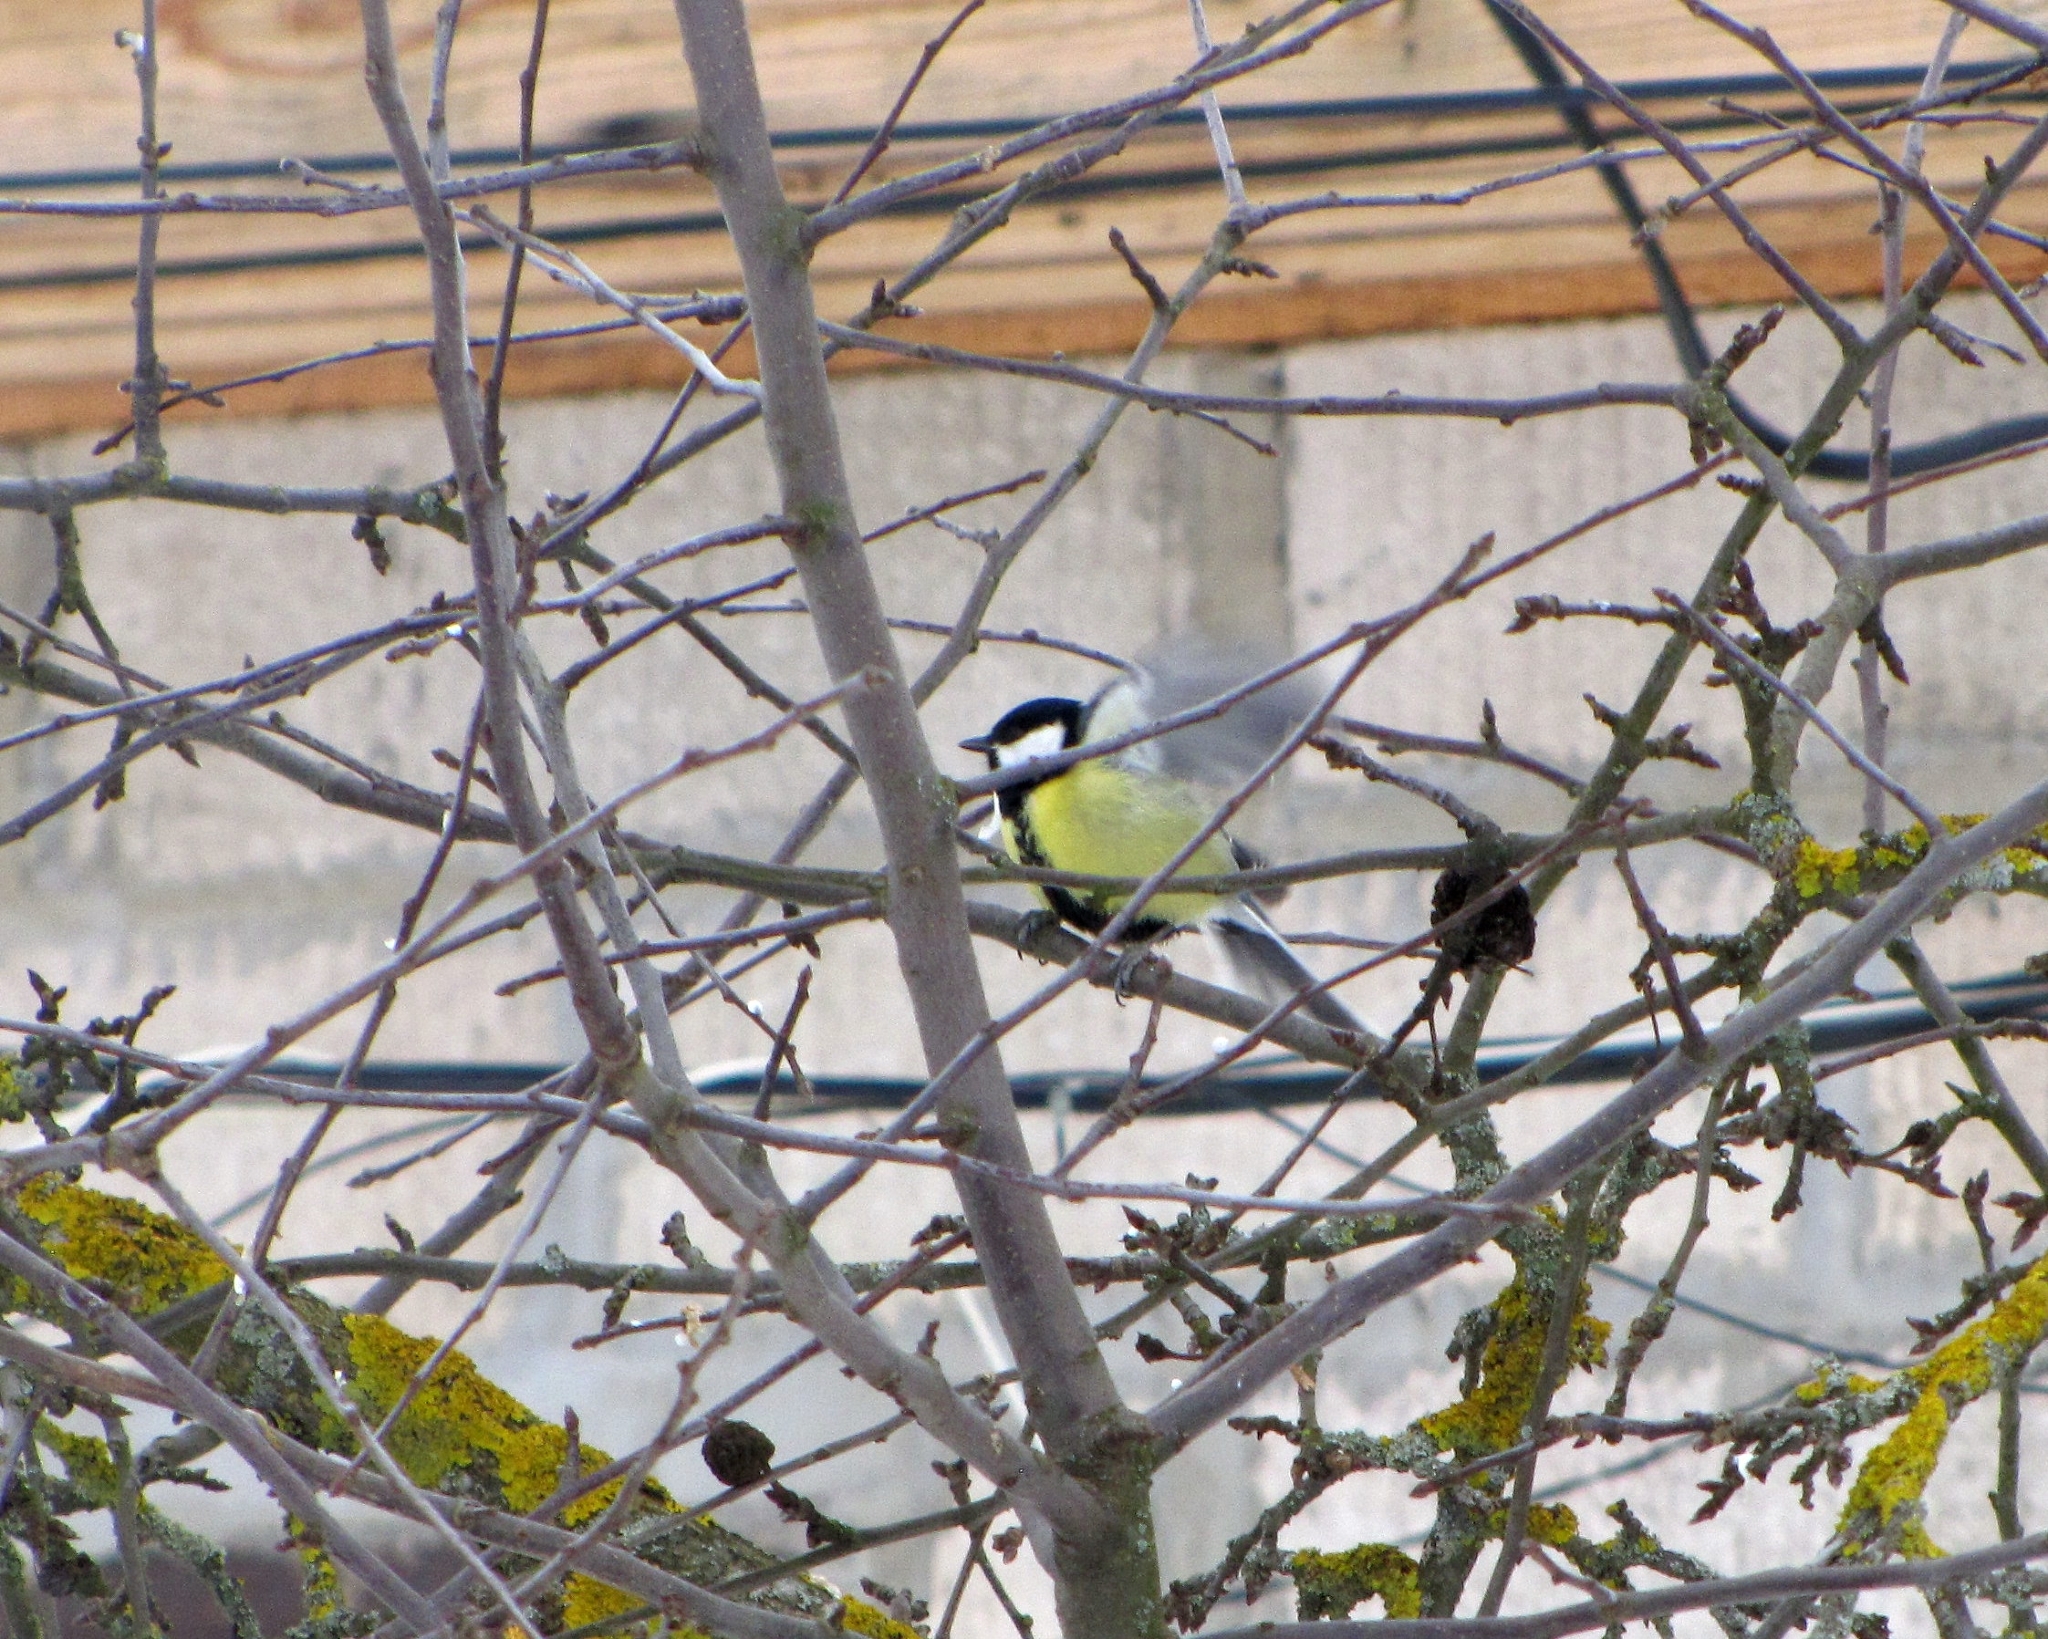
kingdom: Animalia
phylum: Chordata
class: Aves
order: Passeriformes
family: Paridae
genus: Parus
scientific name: Parus major
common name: Great tit
